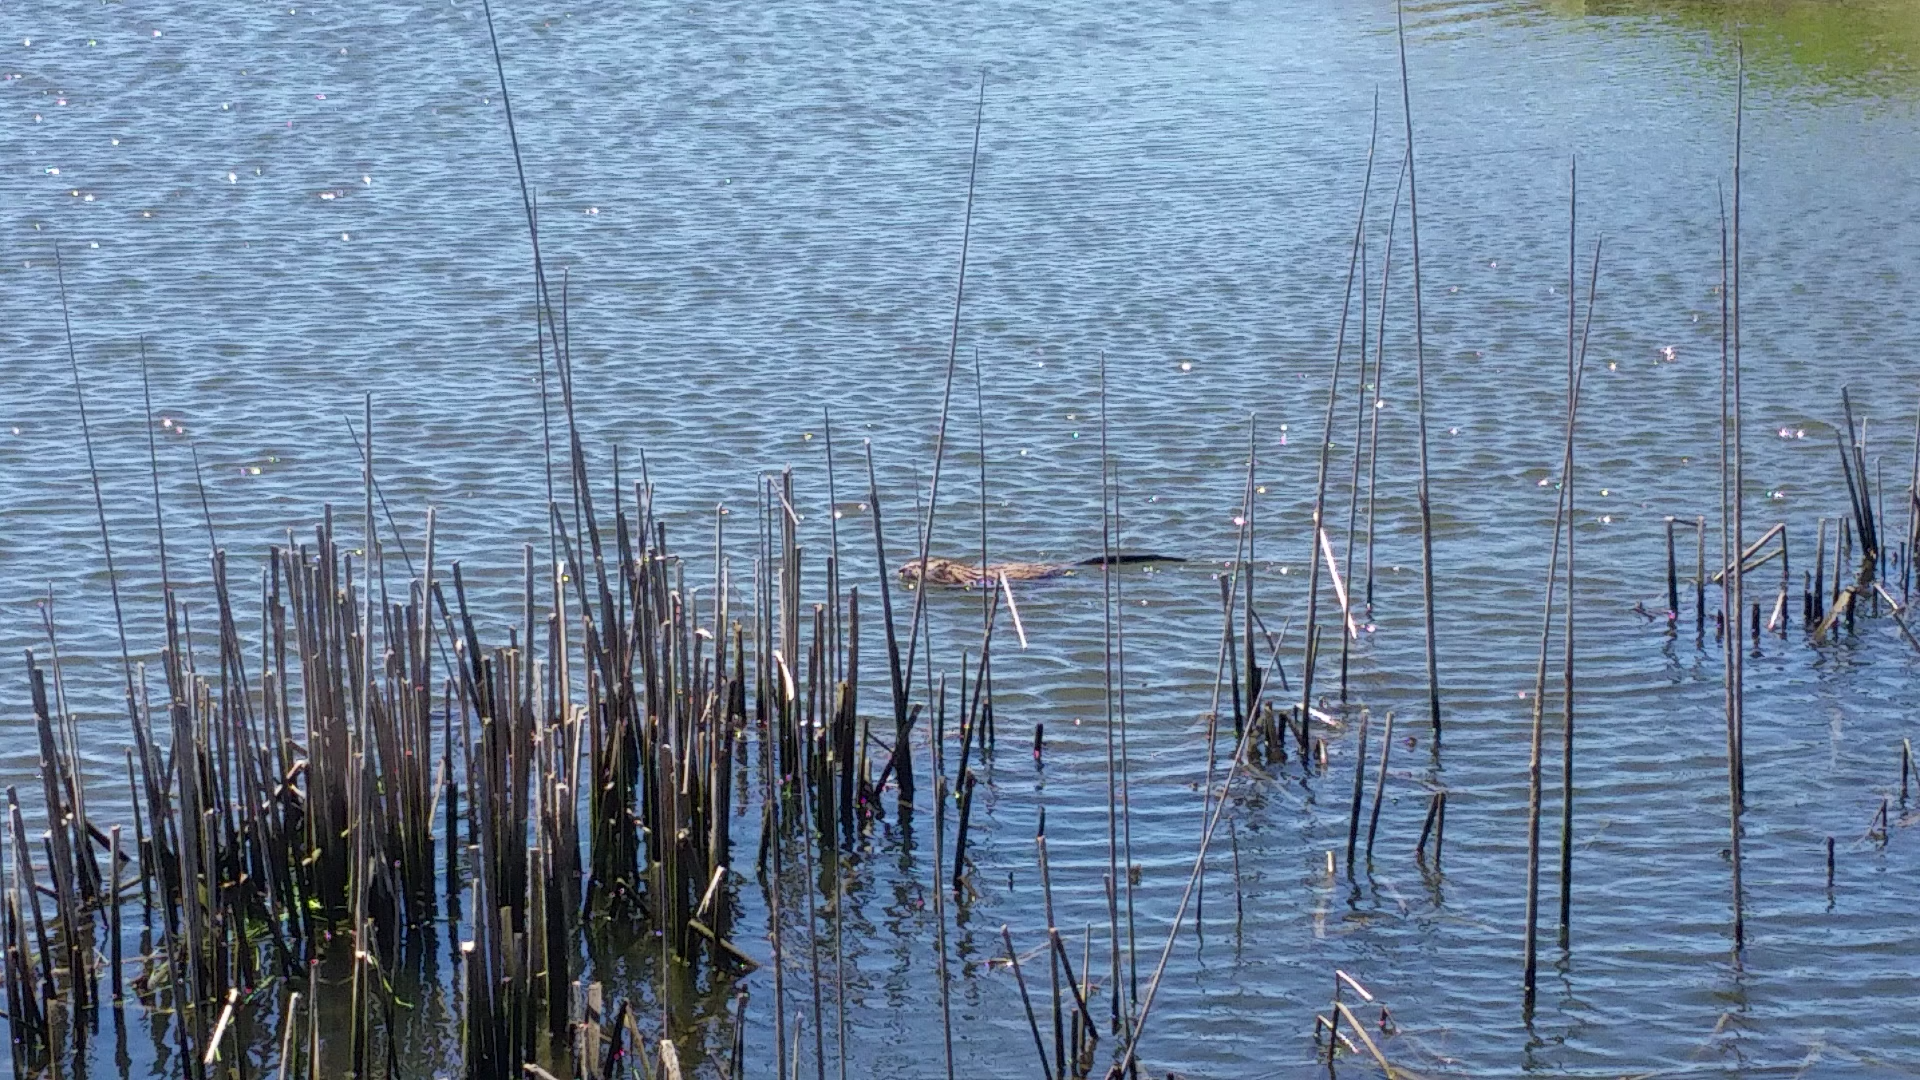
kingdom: Animalia
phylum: Chordata
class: Mammalia
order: Rodentia
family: Cricetidae
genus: Ondatra
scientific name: Ondatra zibethicus
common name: Muskrat
